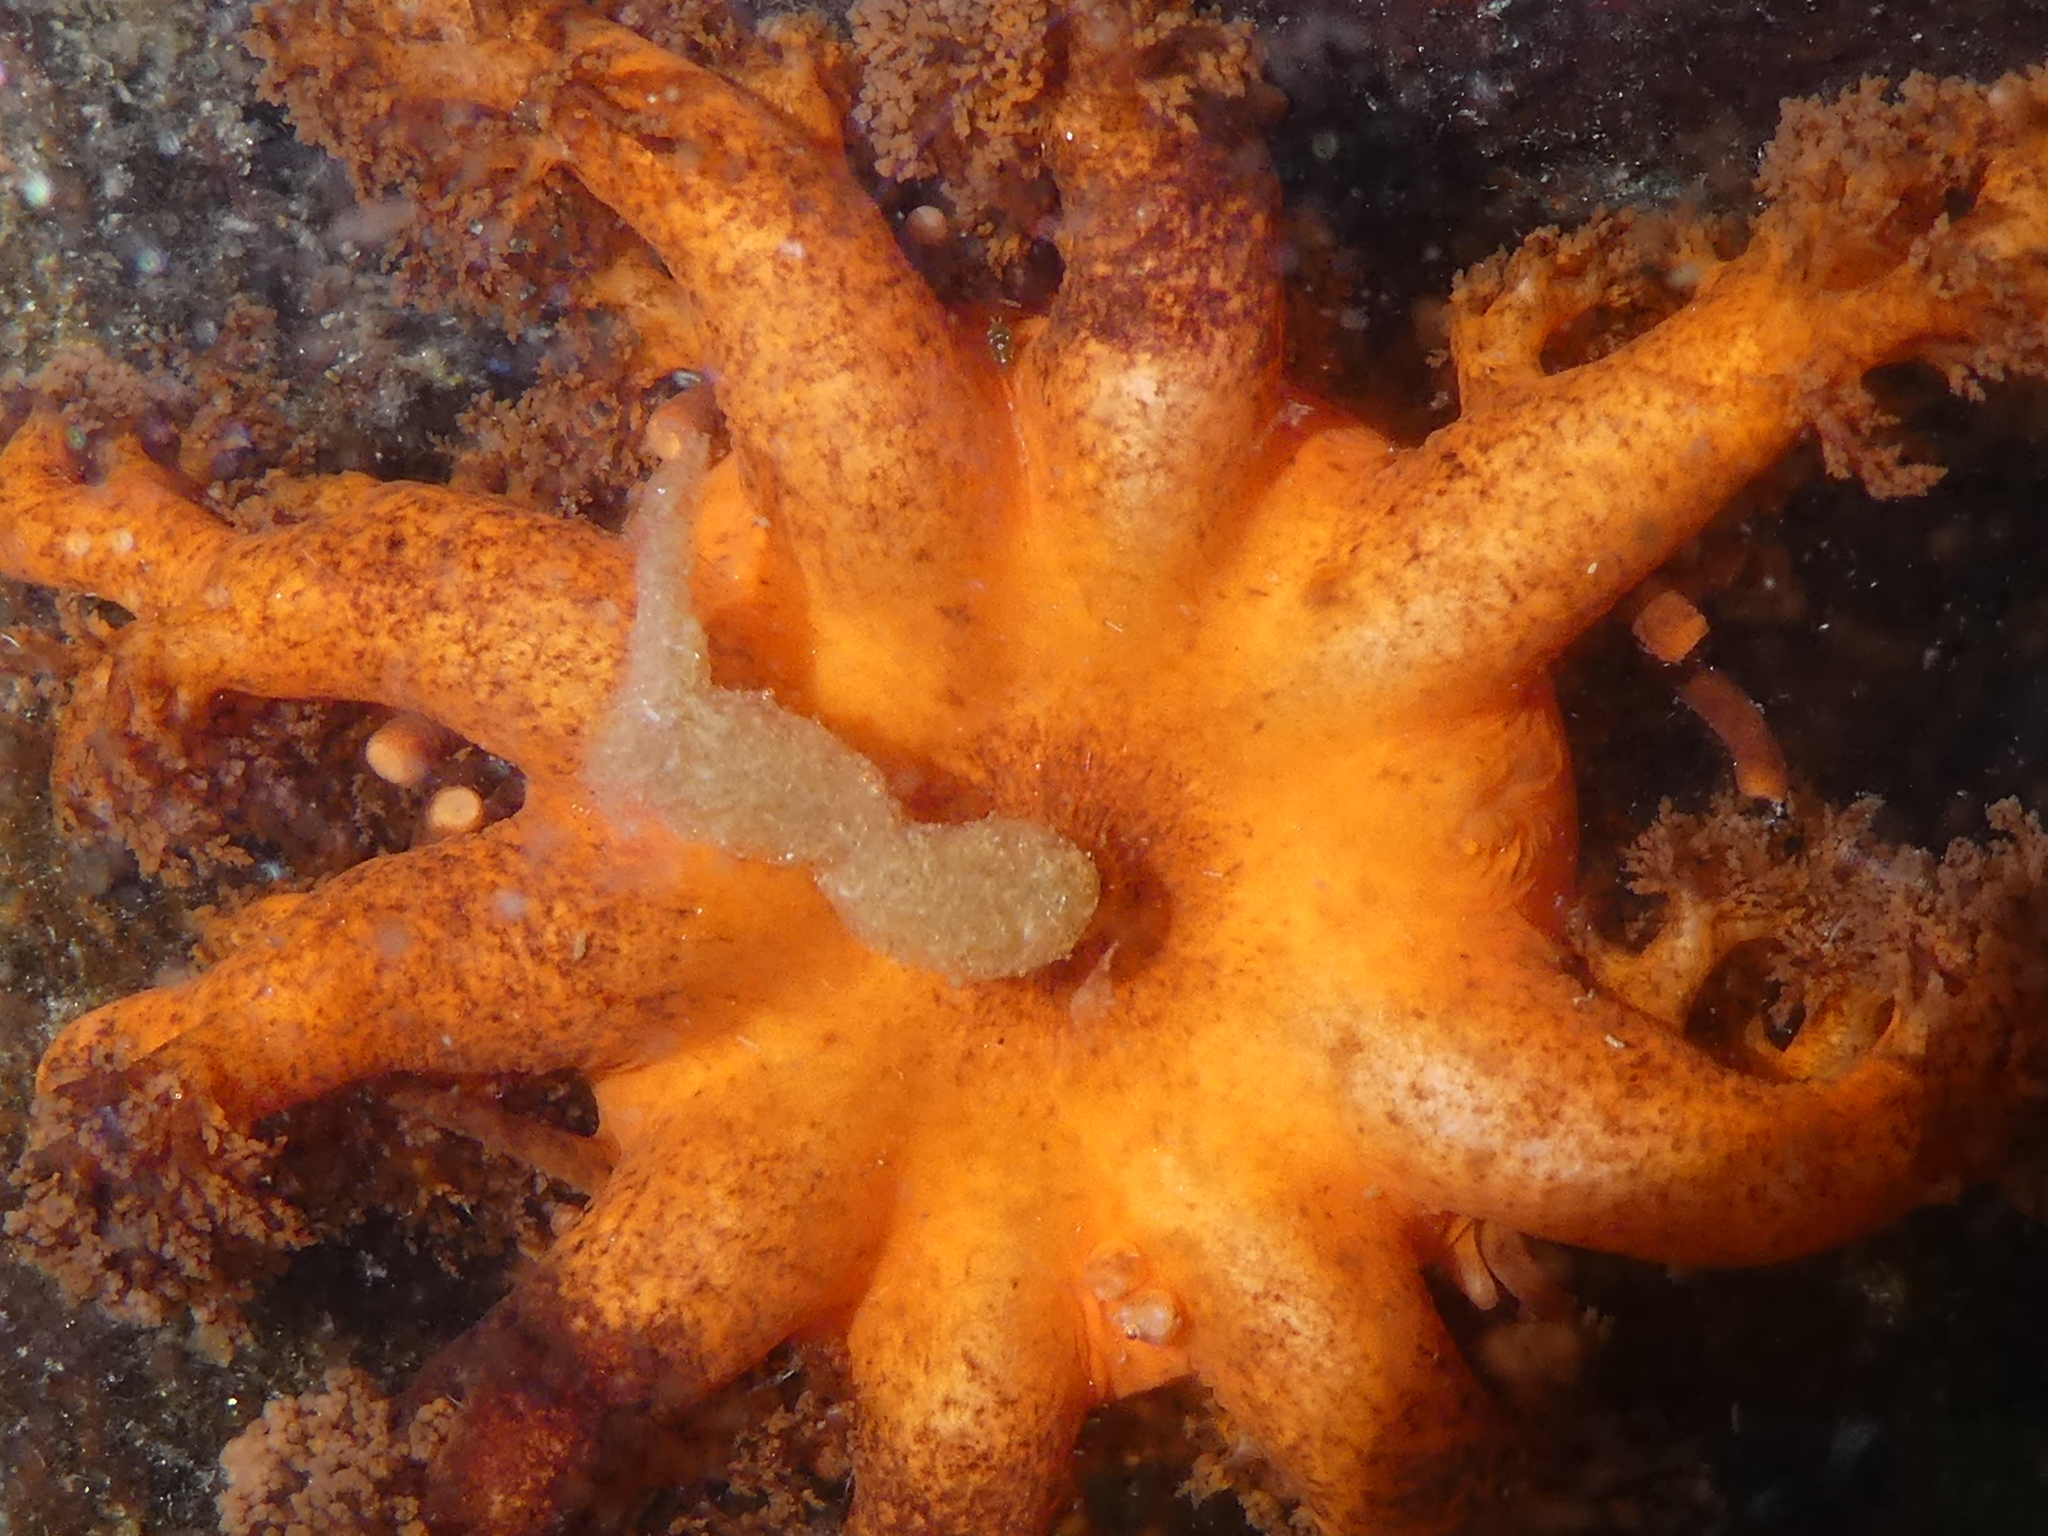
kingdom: Animalia
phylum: Echinodermata
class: Holothuroidea
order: Dendrochirotida
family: Cucumariidae
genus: Cucumaria
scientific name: Cucumaria miniata
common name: Orange sea cucumber
